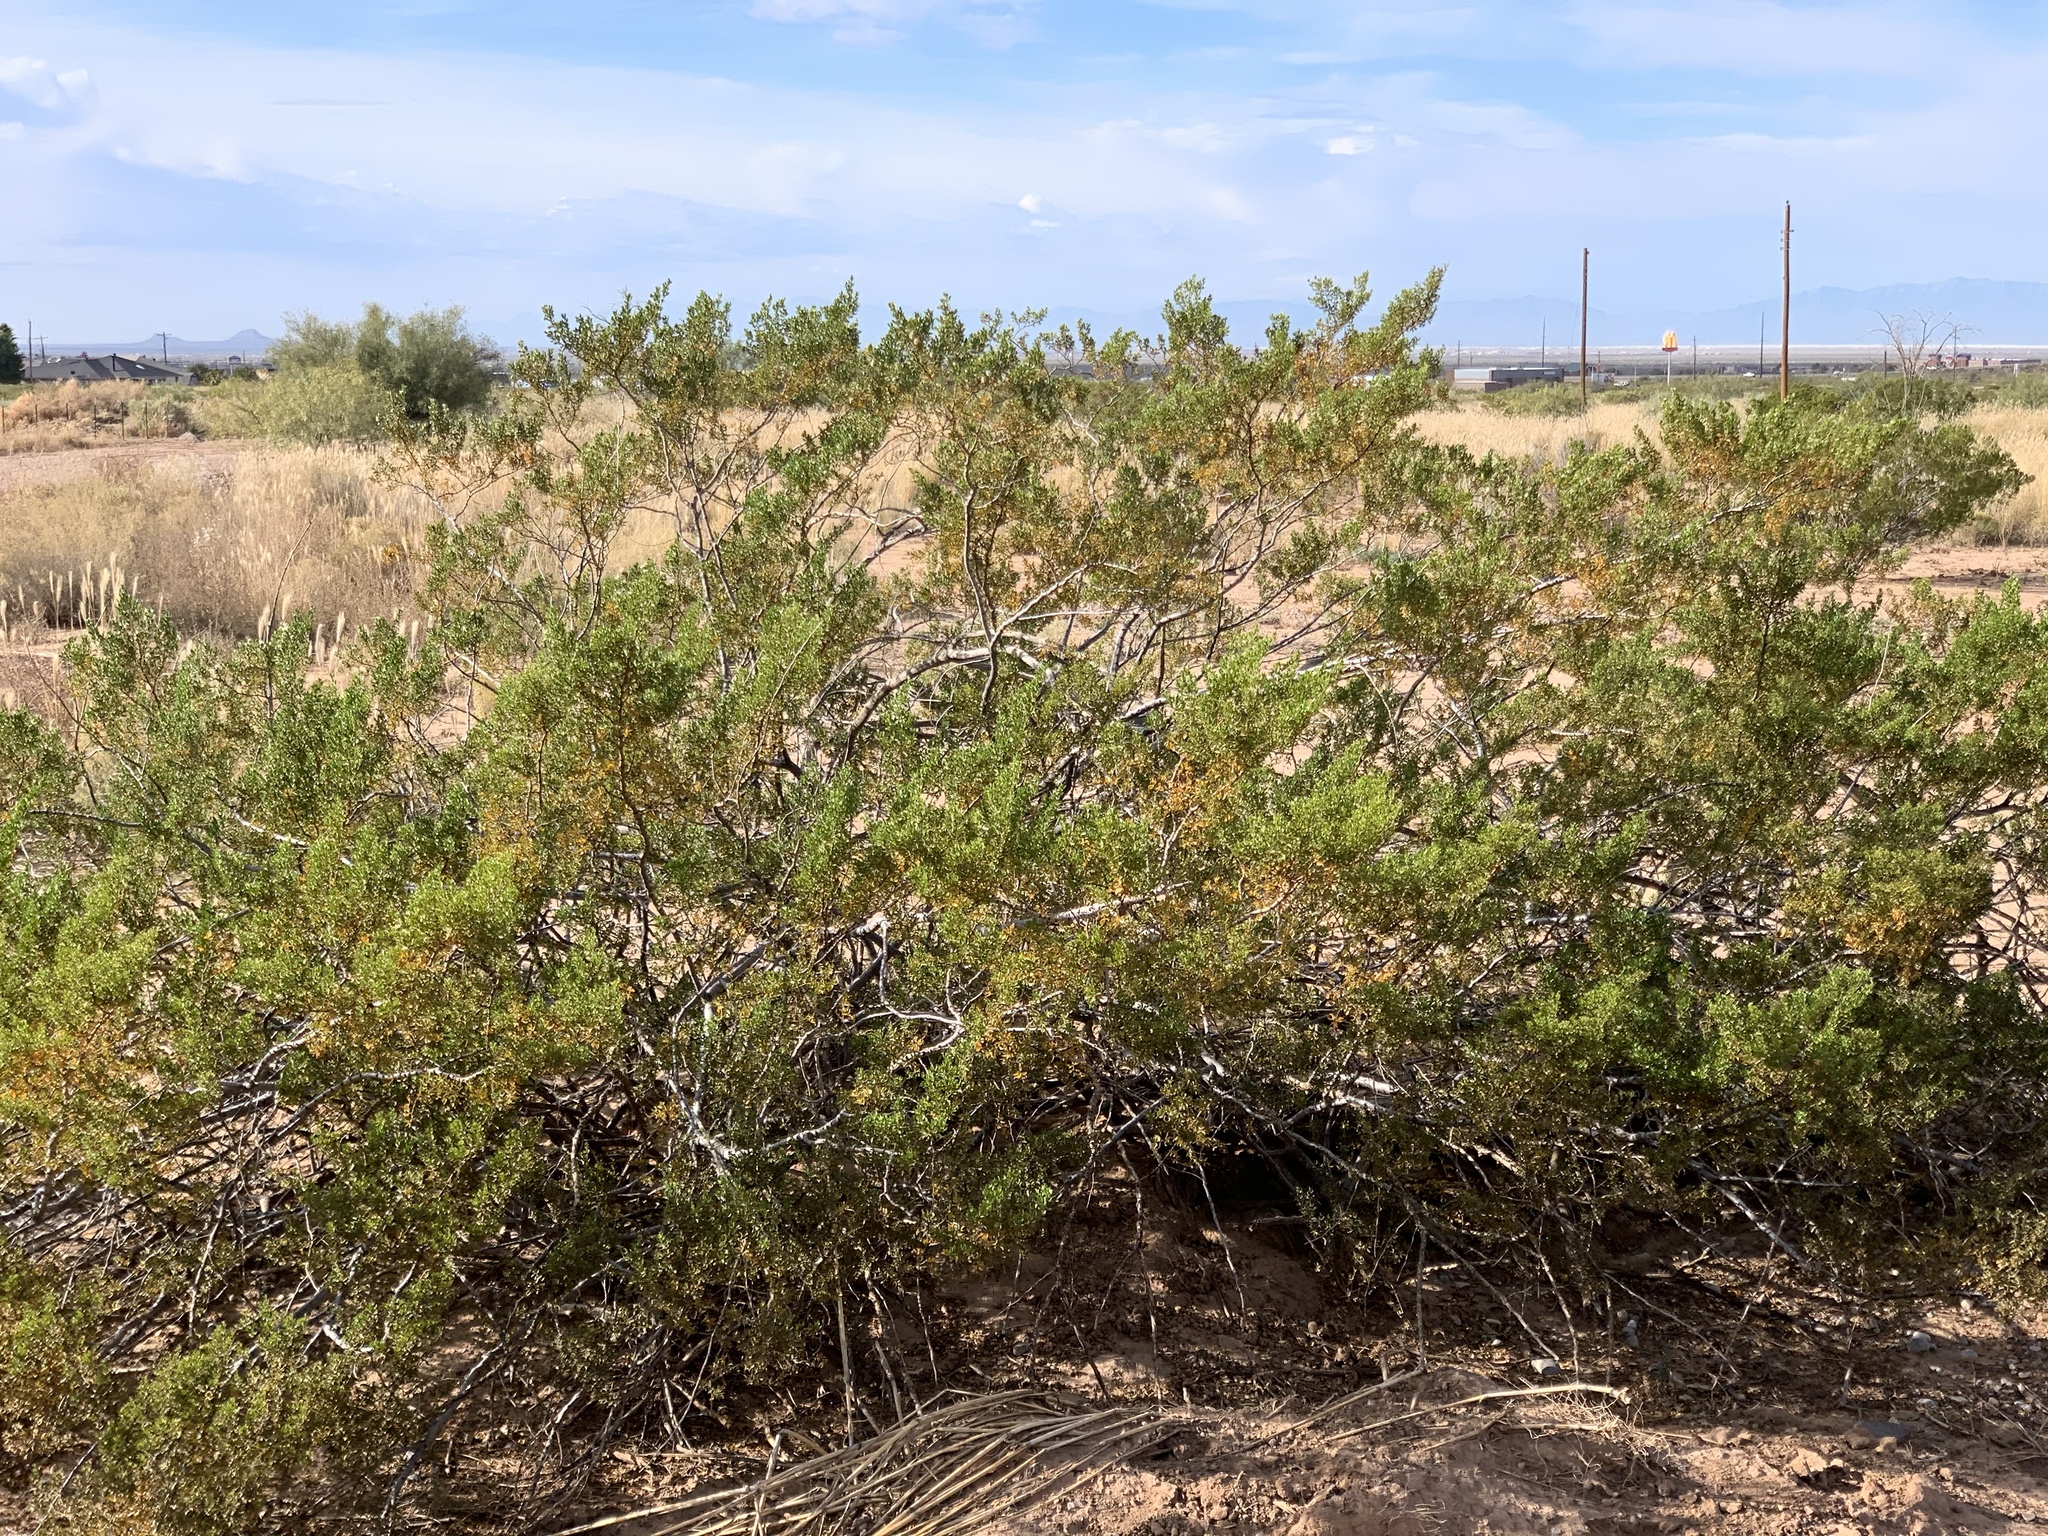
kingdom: Plantae
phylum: Tracheophyta
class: Magnoliopsida
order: Zygophyllales
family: Zygophyllaceae
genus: Larrea
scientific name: Larrea tridentata
